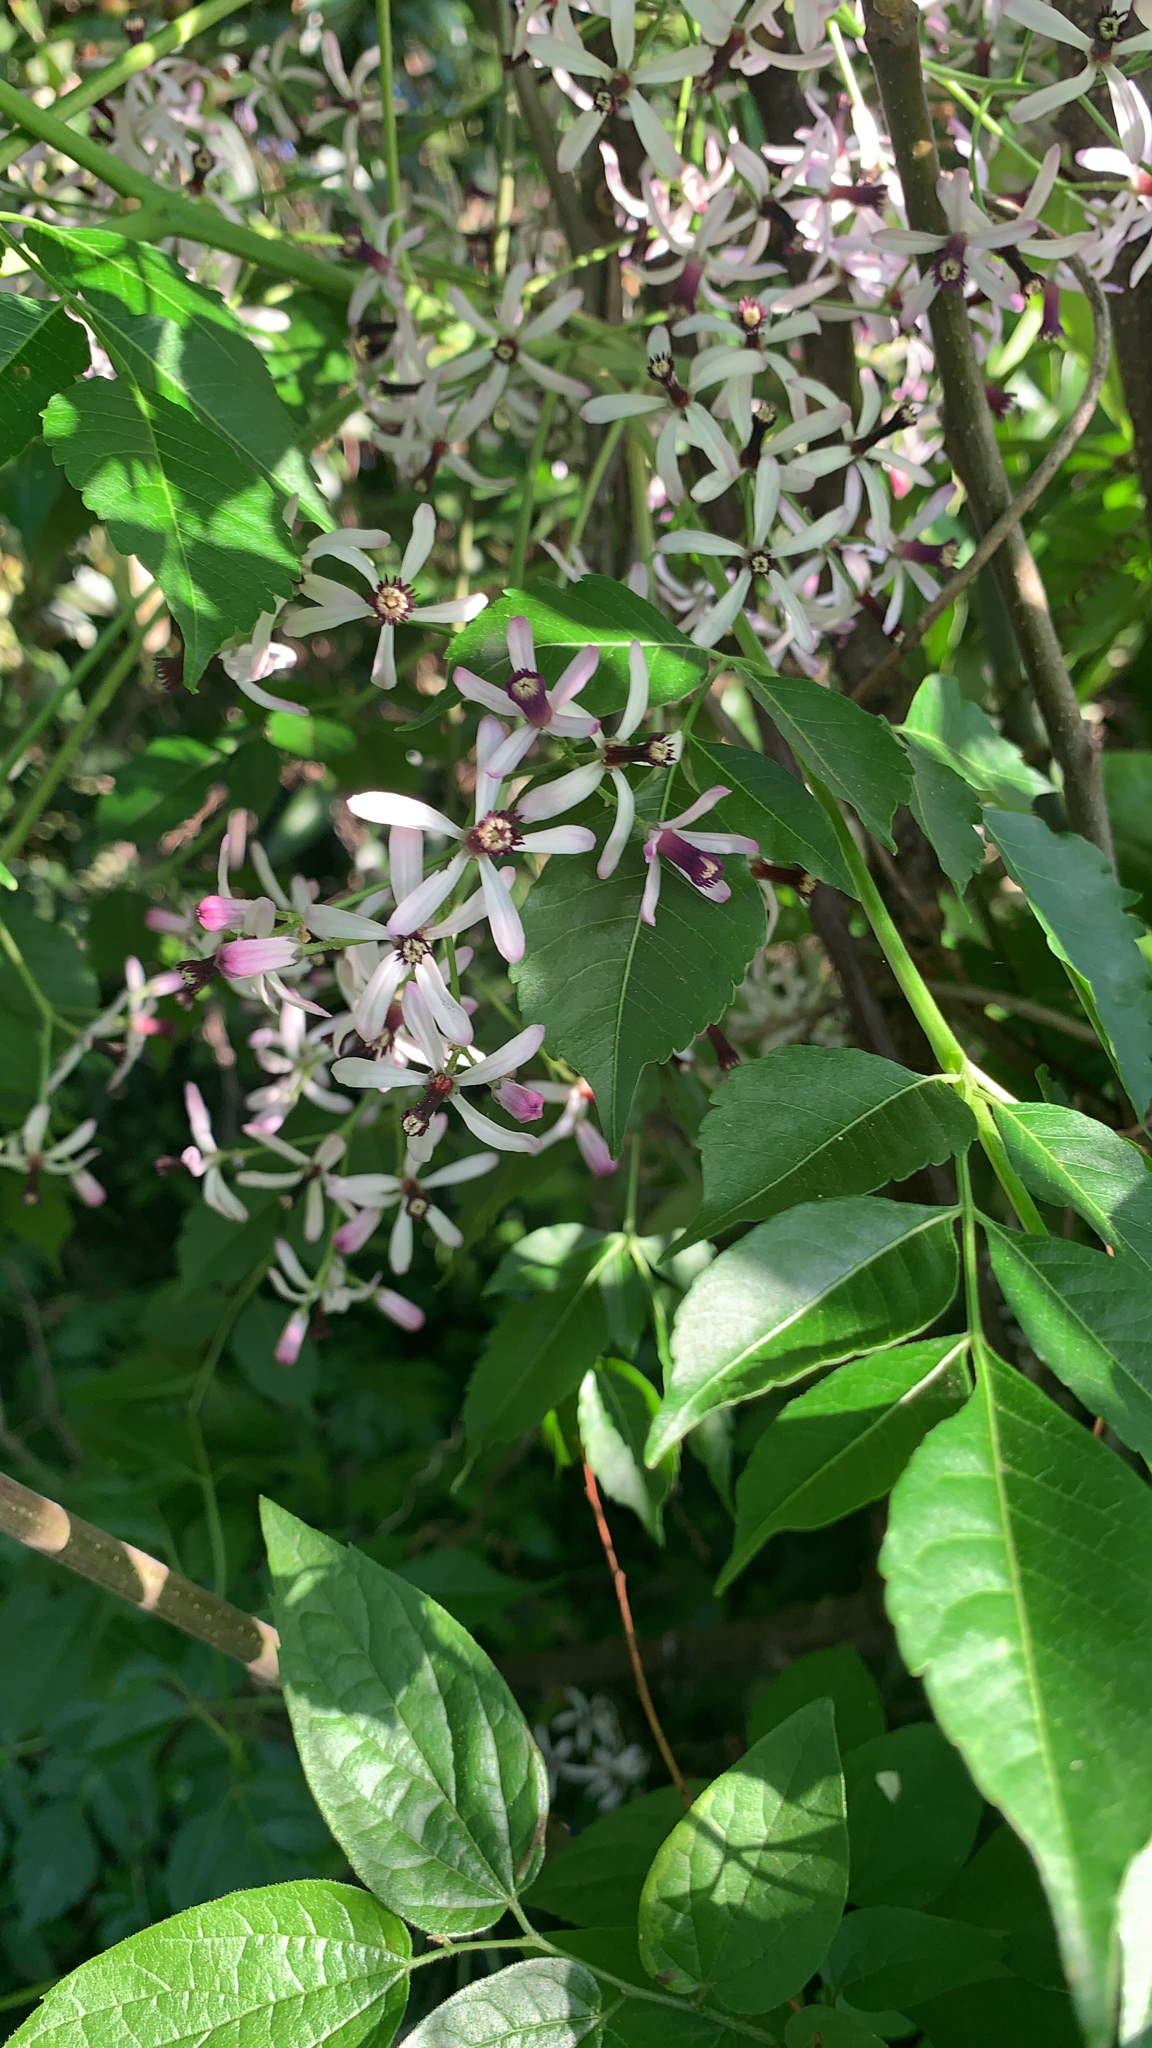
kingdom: Plantae
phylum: Tracheophyta
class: Magnoliopsida
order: Sapindales
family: Meliaceae
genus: Melia
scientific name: Melia azedarach
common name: Chinaberrytree
